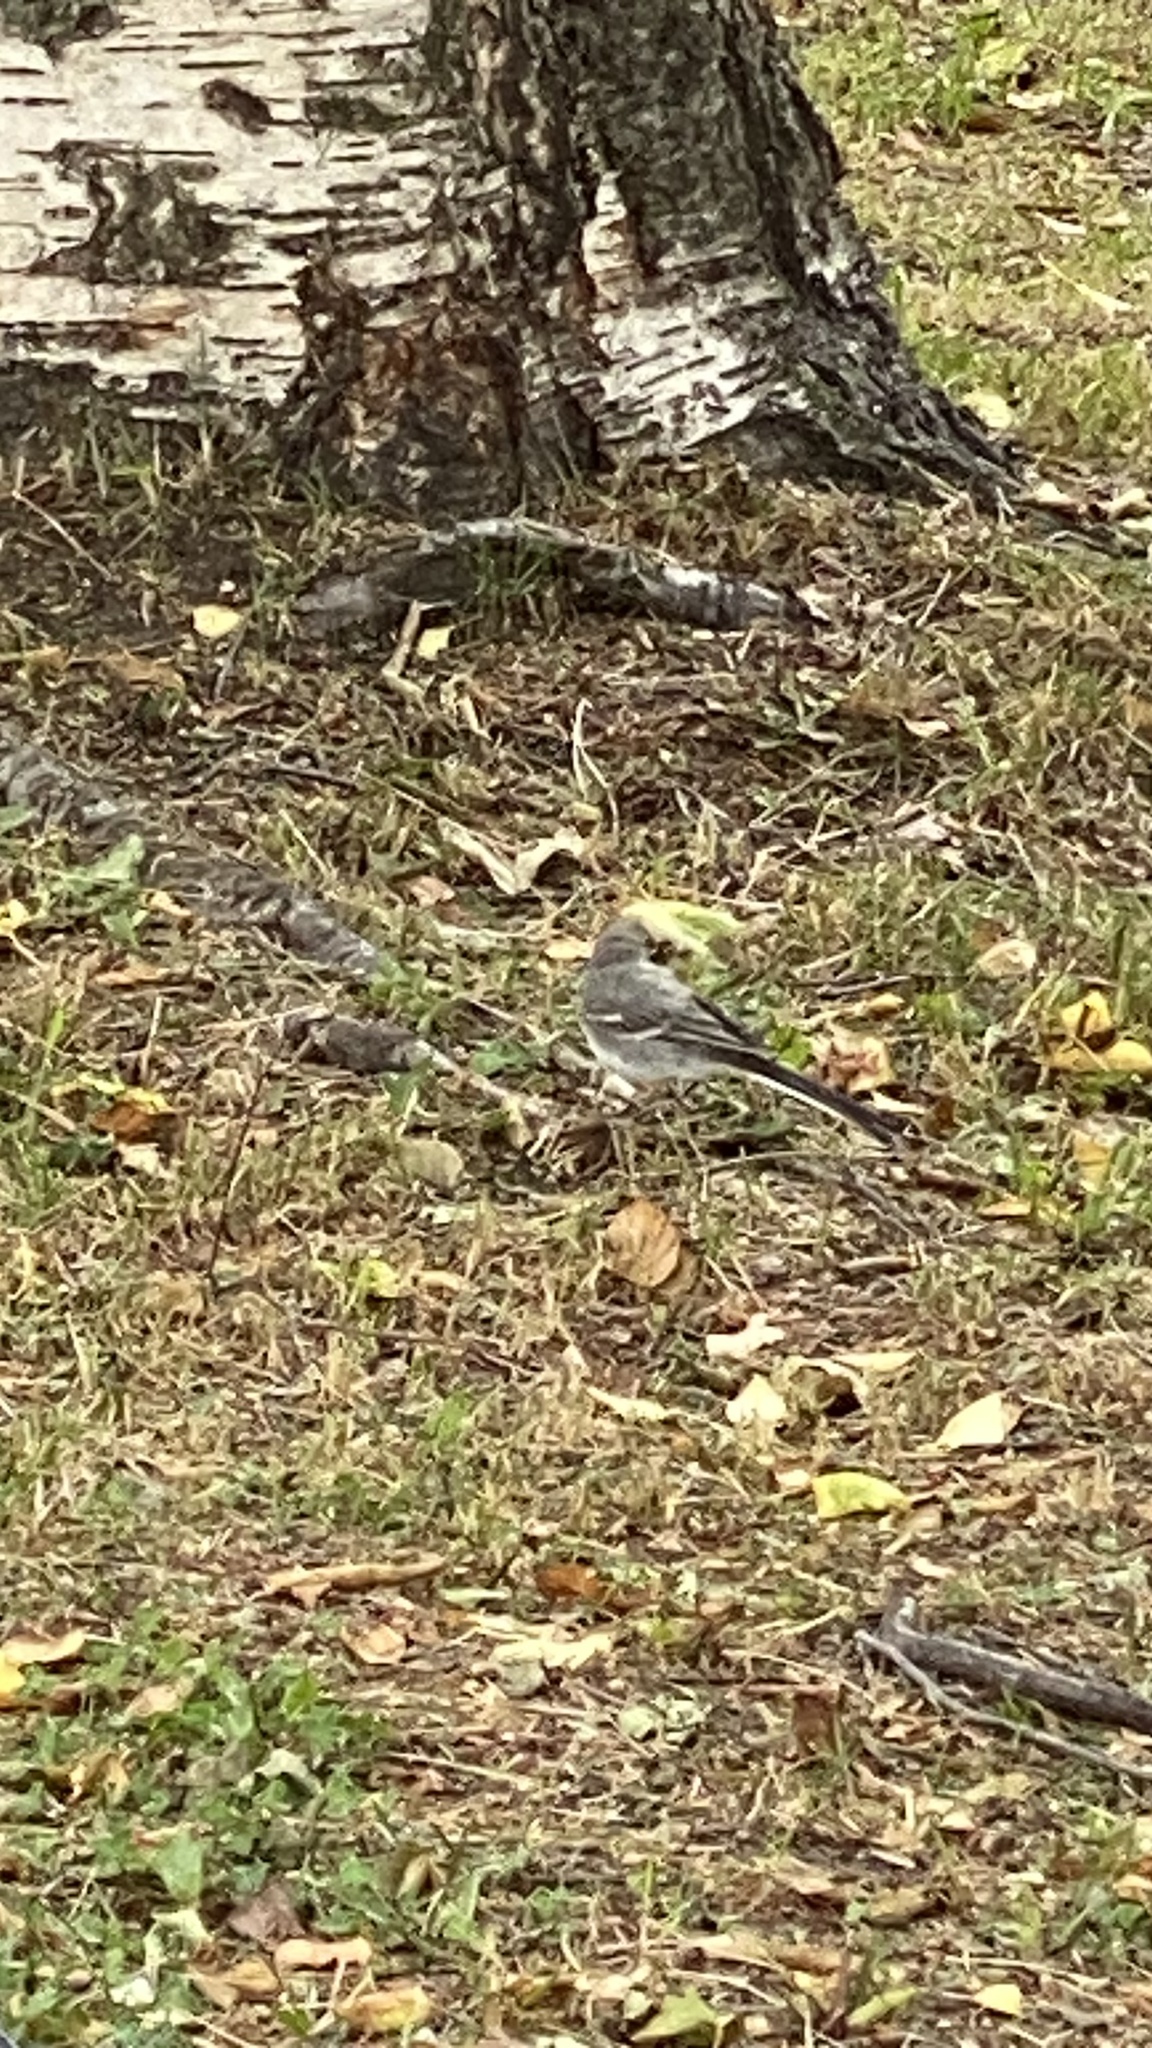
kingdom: Animalia
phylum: Chordata
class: Aves
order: Passeriformes
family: Motacillidae
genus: Motacilla
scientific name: Motacilla alba
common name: White wagtail
